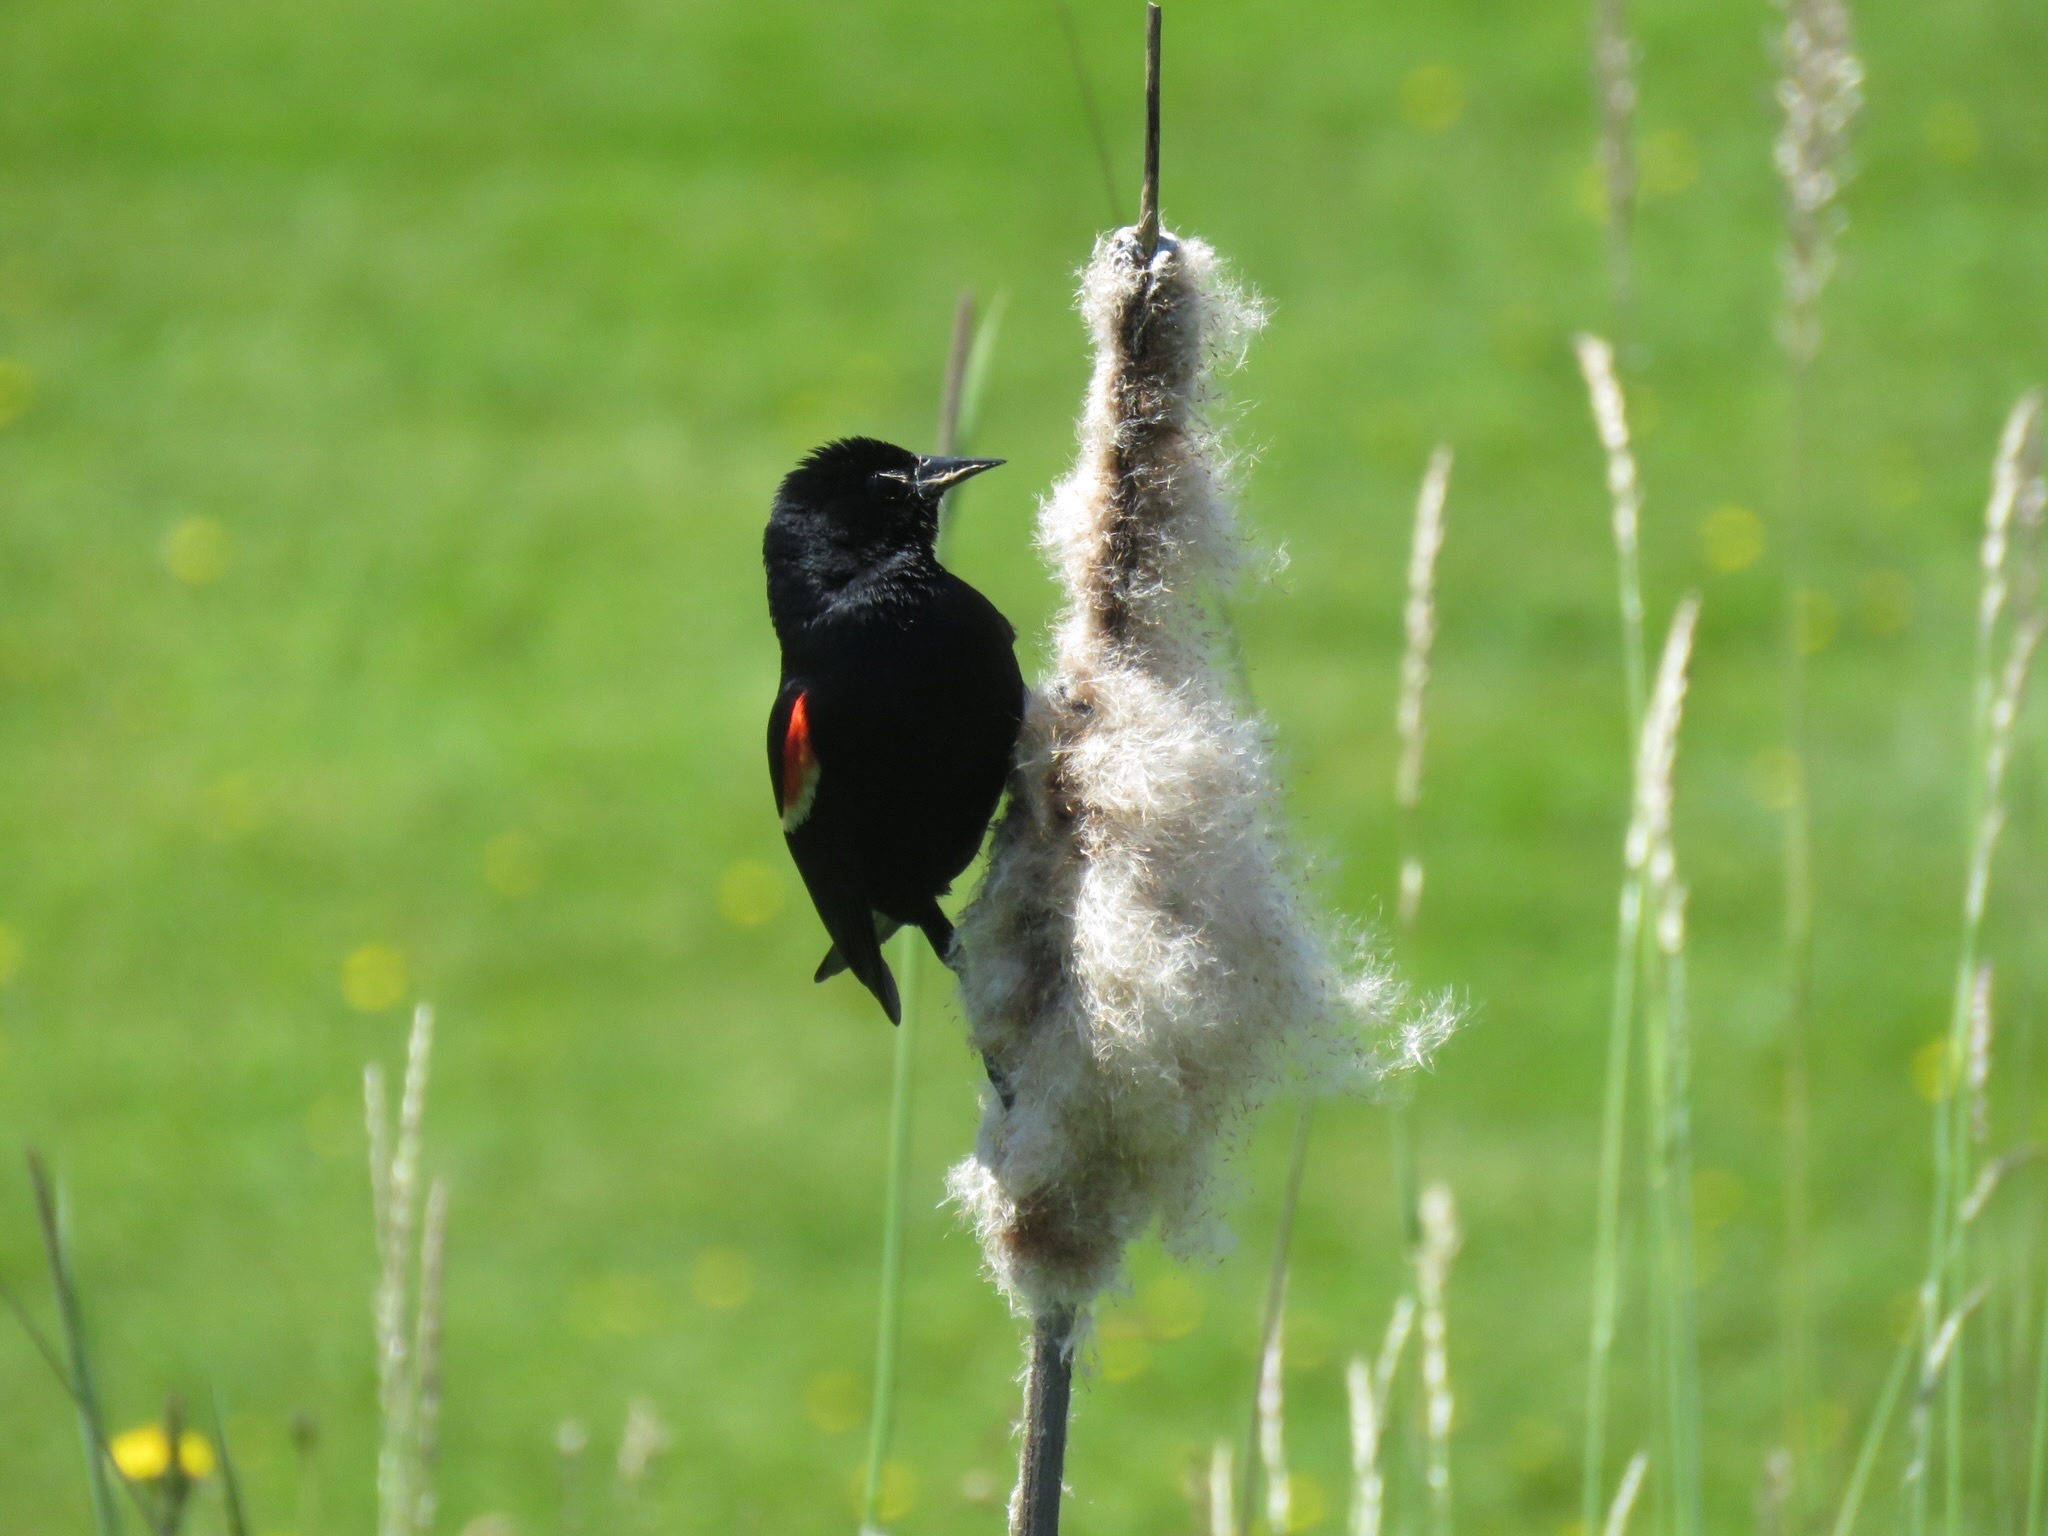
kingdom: Animalia
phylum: Chordata
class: Aves
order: Passeriformes
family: Icteridae
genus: Agelaius
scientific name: Agelaius phoeniceus
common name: Red-winged blackbird
